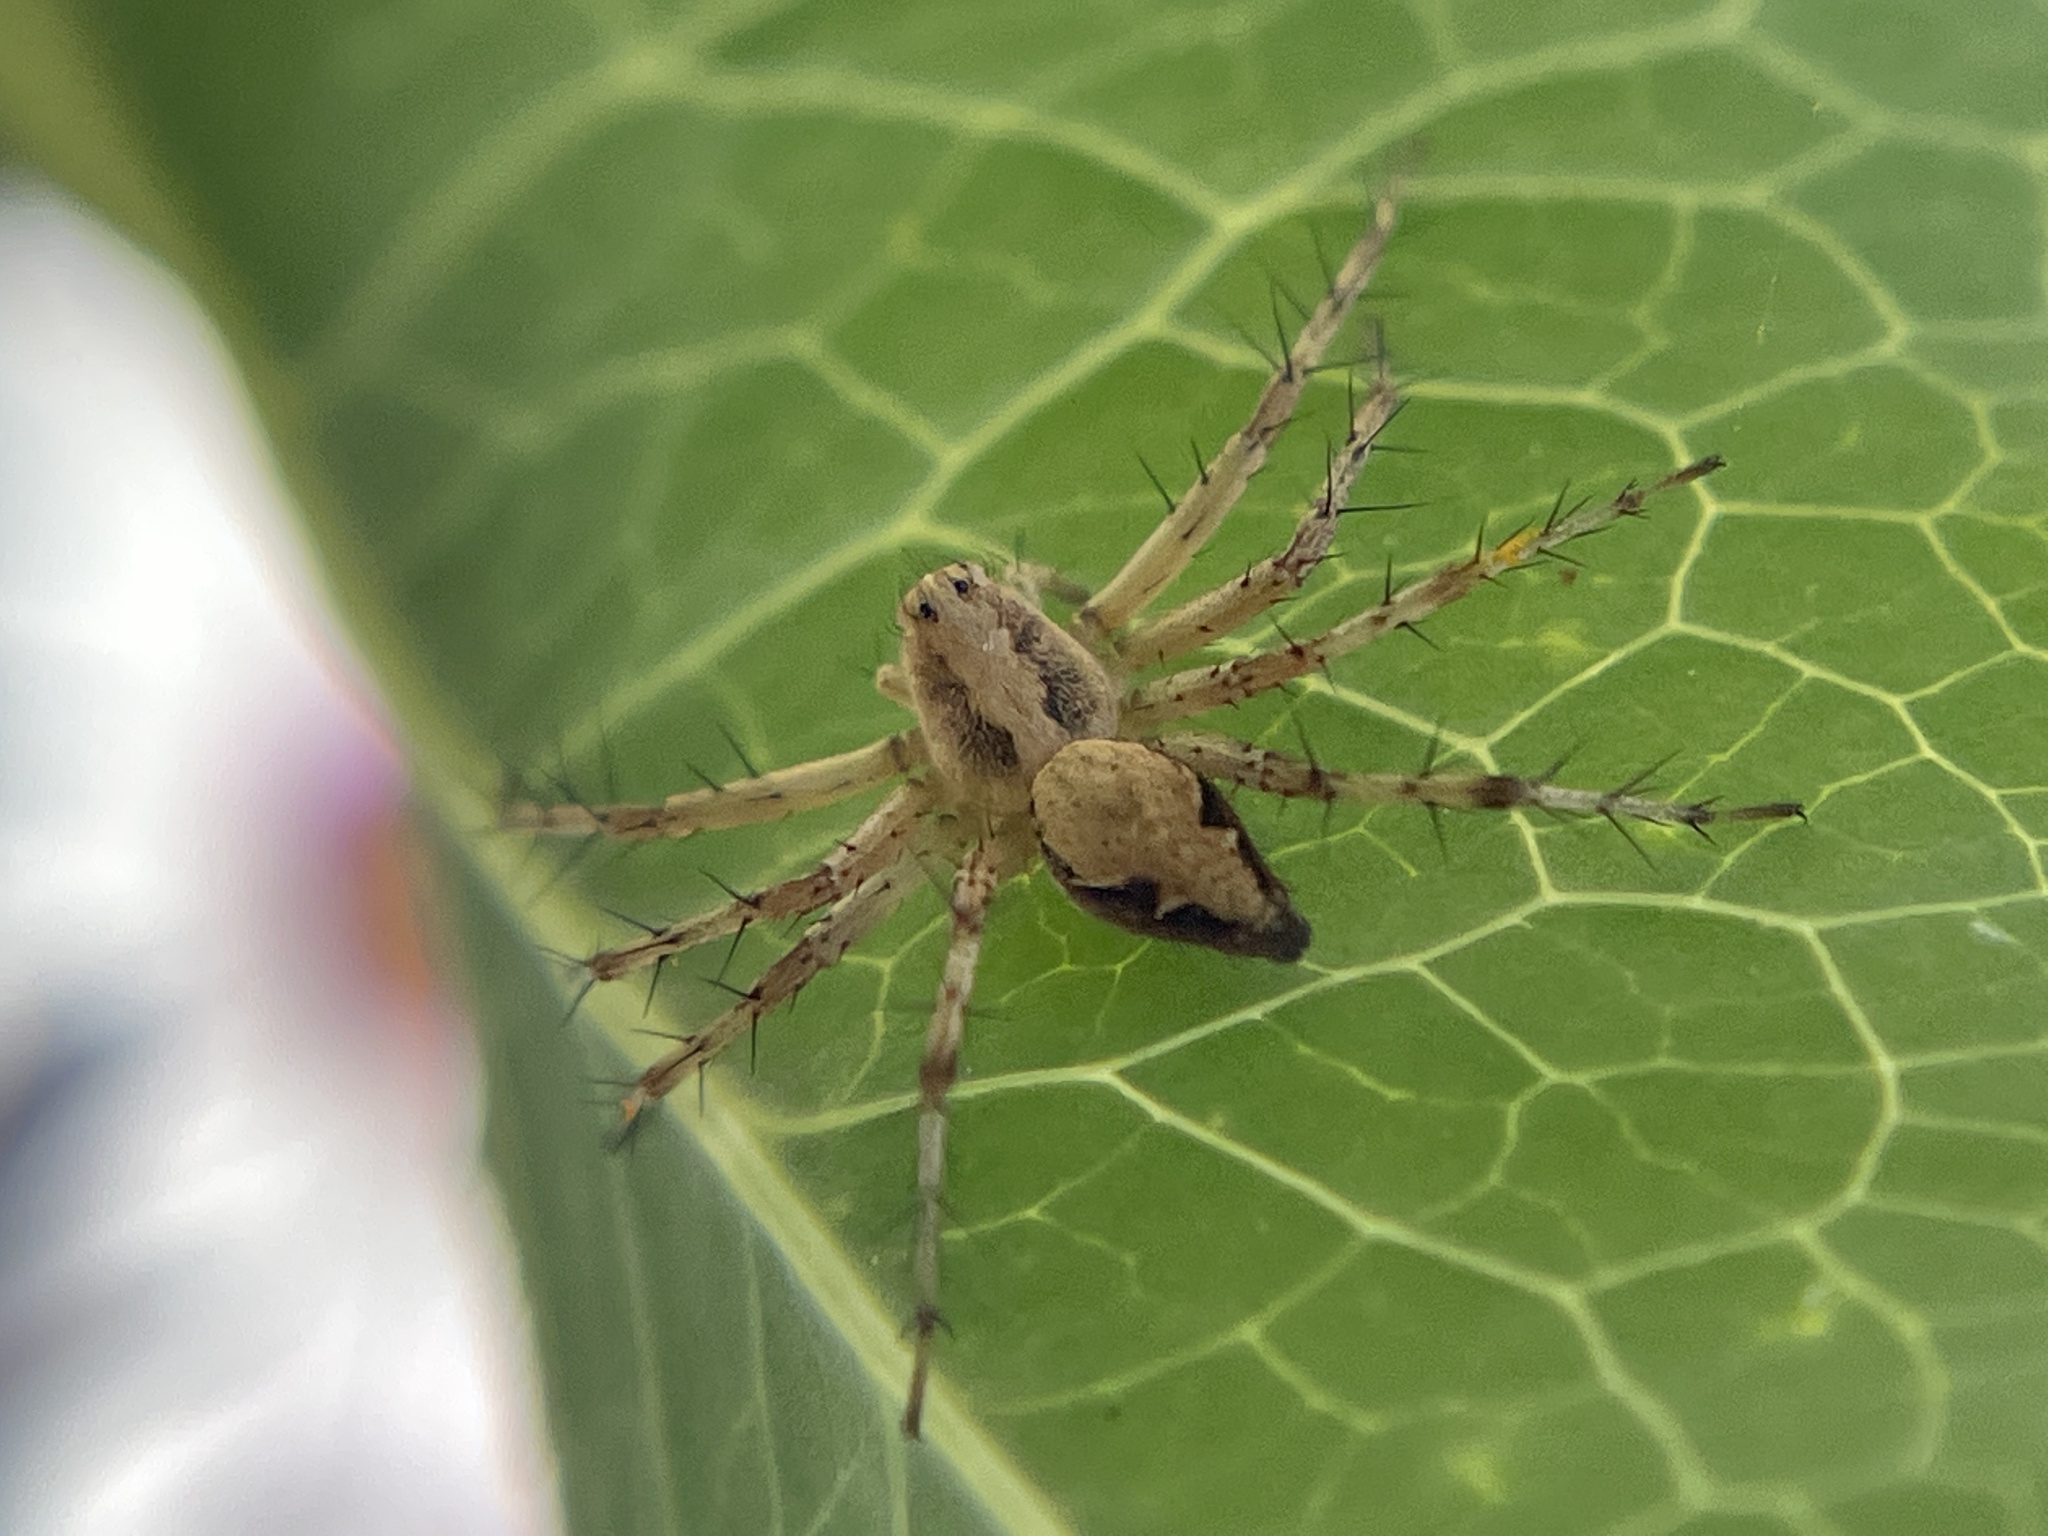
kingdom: Animalia
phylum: Arthropoda
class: Arachnida
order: Araneae
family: Oxyopidae
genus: Oxyopes
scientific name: Oxyopes scalaris
